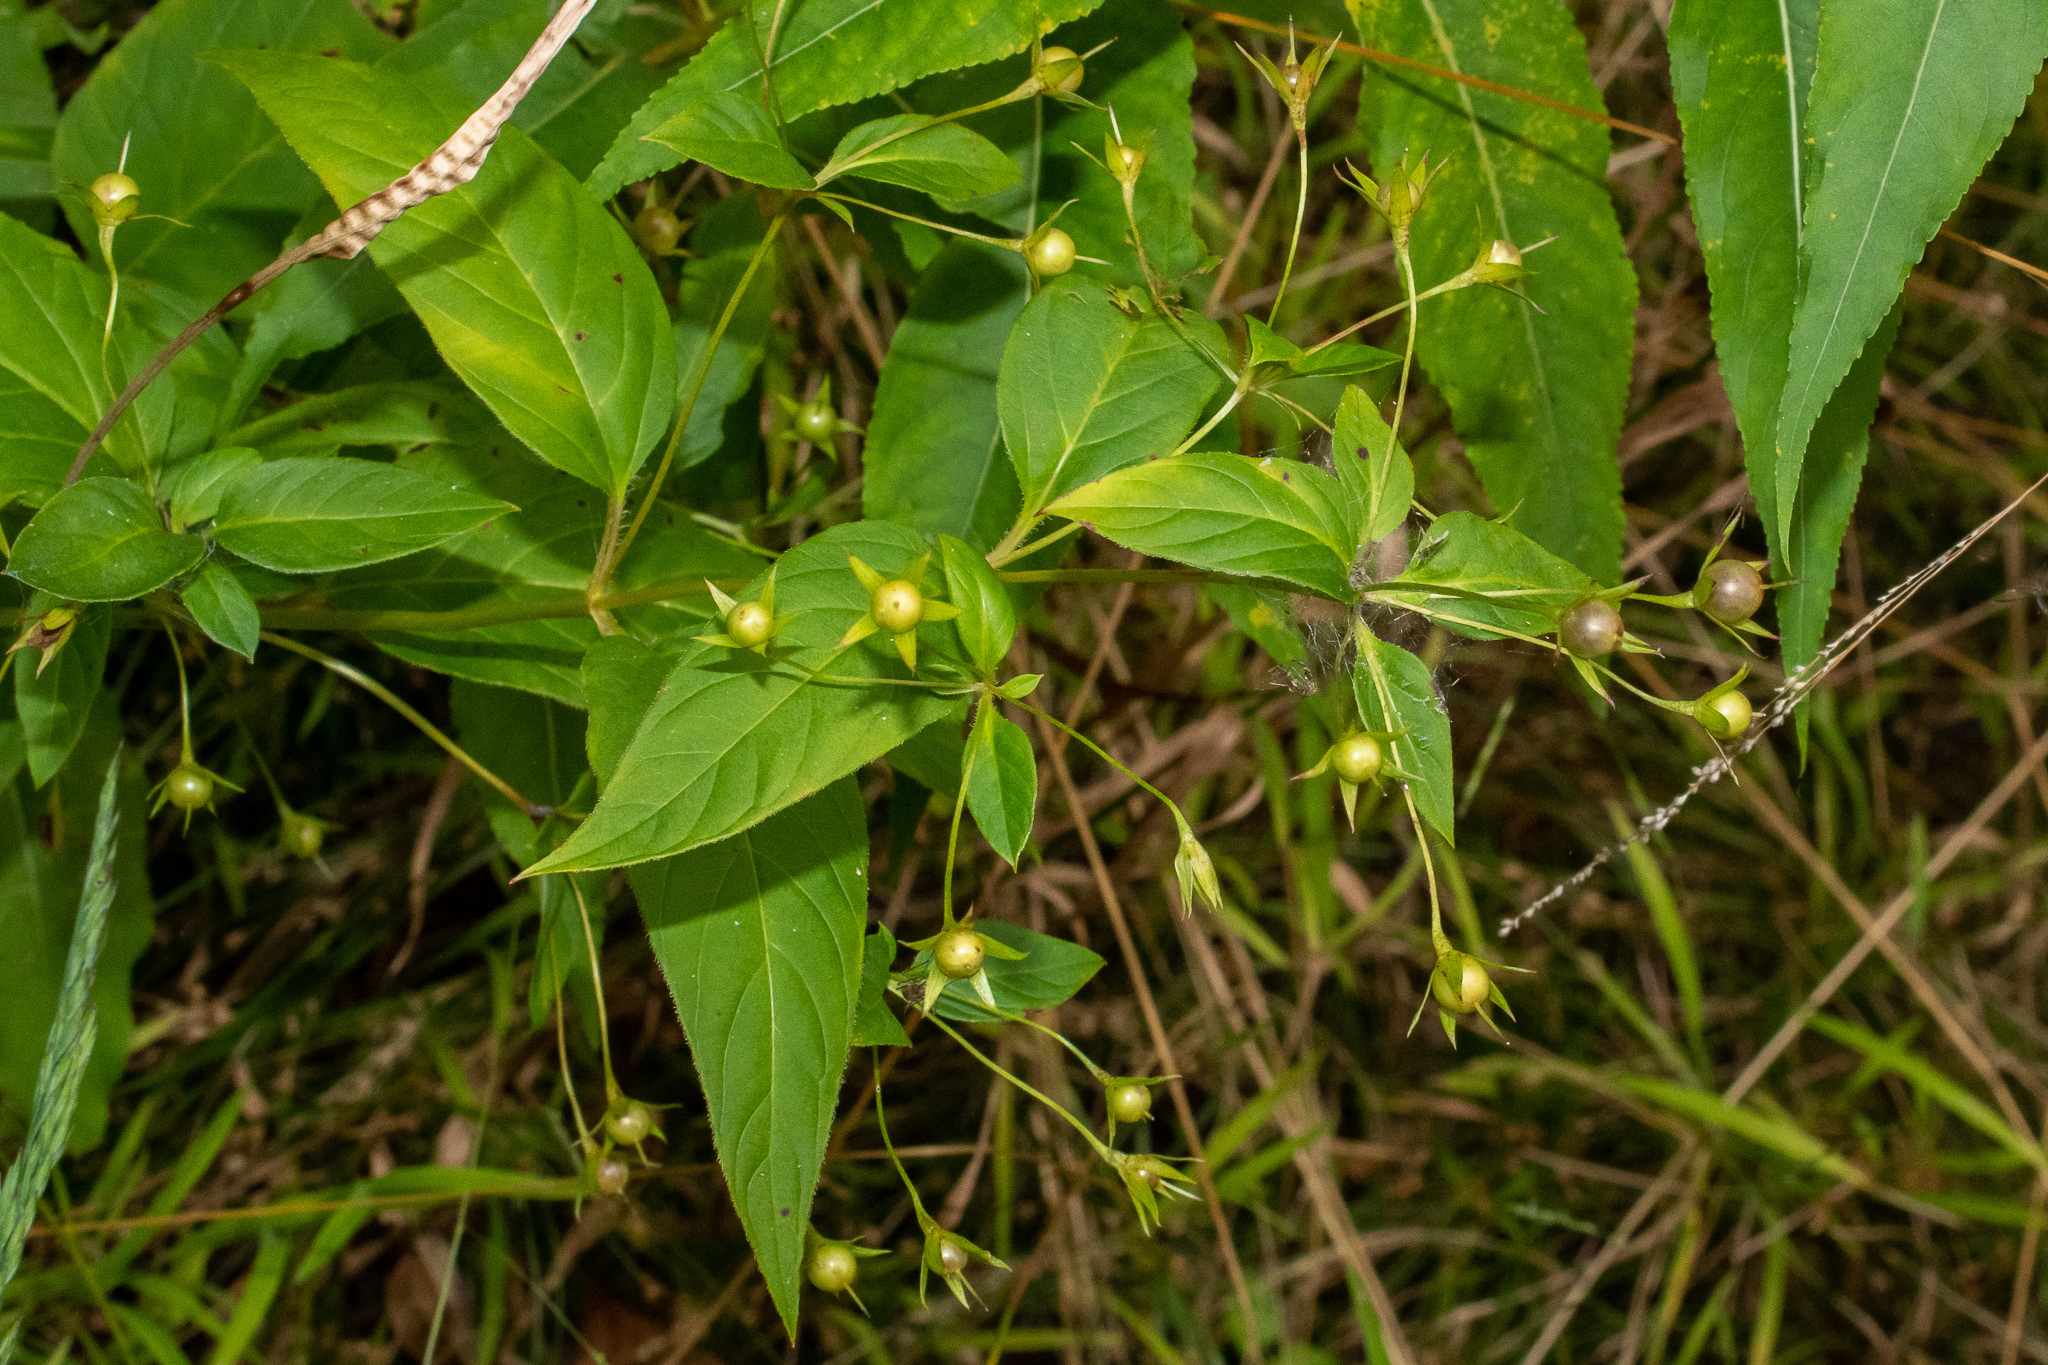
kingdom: Plantae
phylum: Tracheophyta
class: Magnoliopsida
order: Ericales
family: Primulaceae
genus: Lysimachia
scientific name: Lysimachia ciliata
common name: Fringed loosestrife
